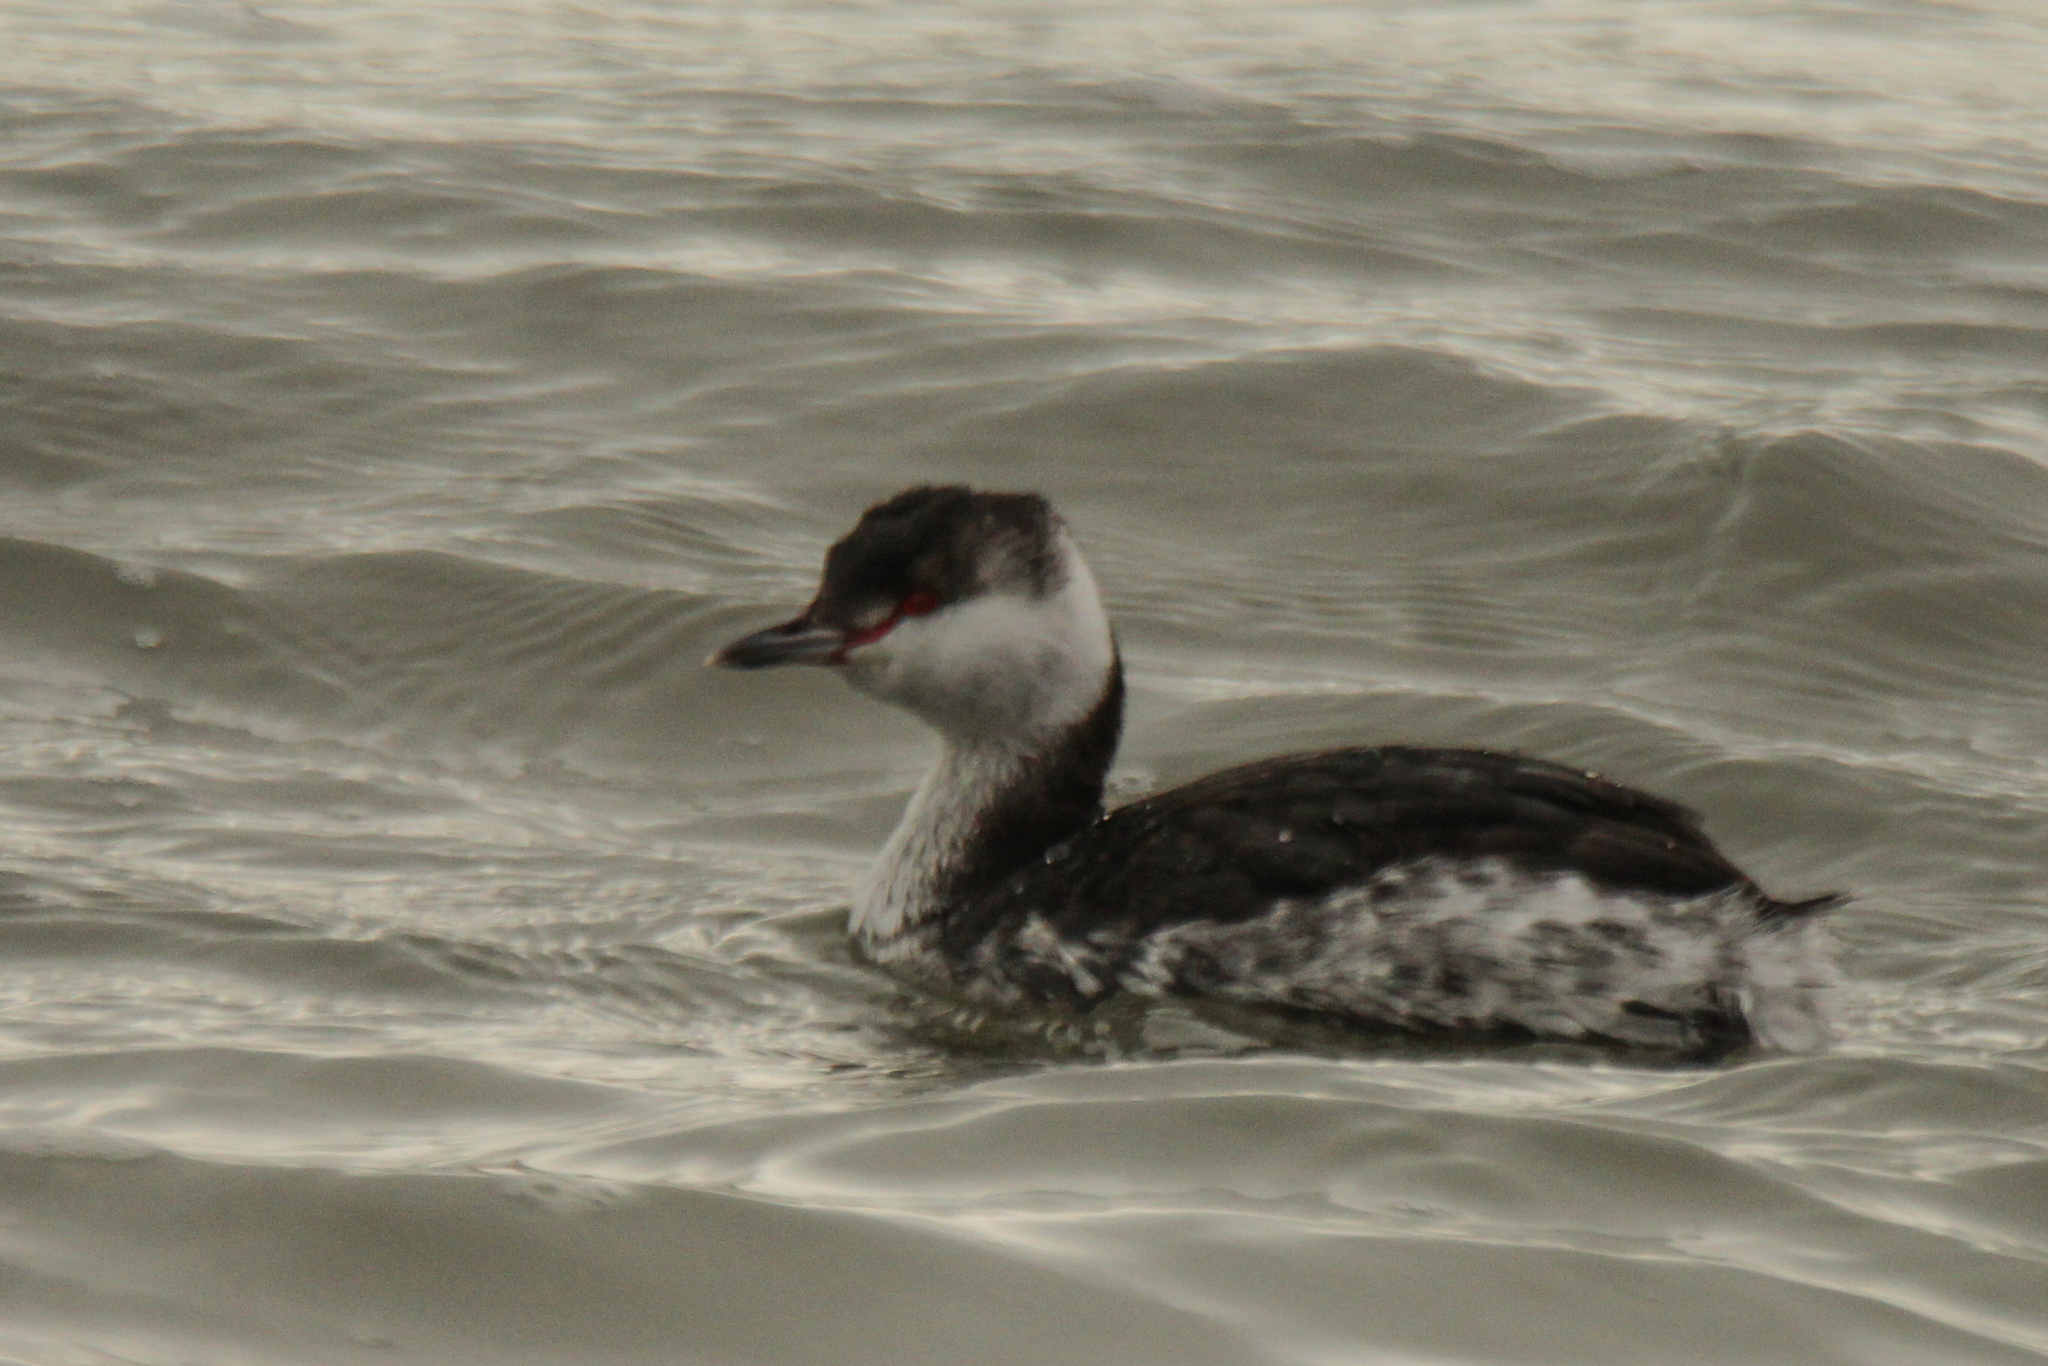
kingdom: Animalia
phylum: Chordata
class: Aves
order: Podicipediformes
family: Podicipedidae
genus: Podiceps
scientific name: Podiceps auritus
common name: Horned grebe
